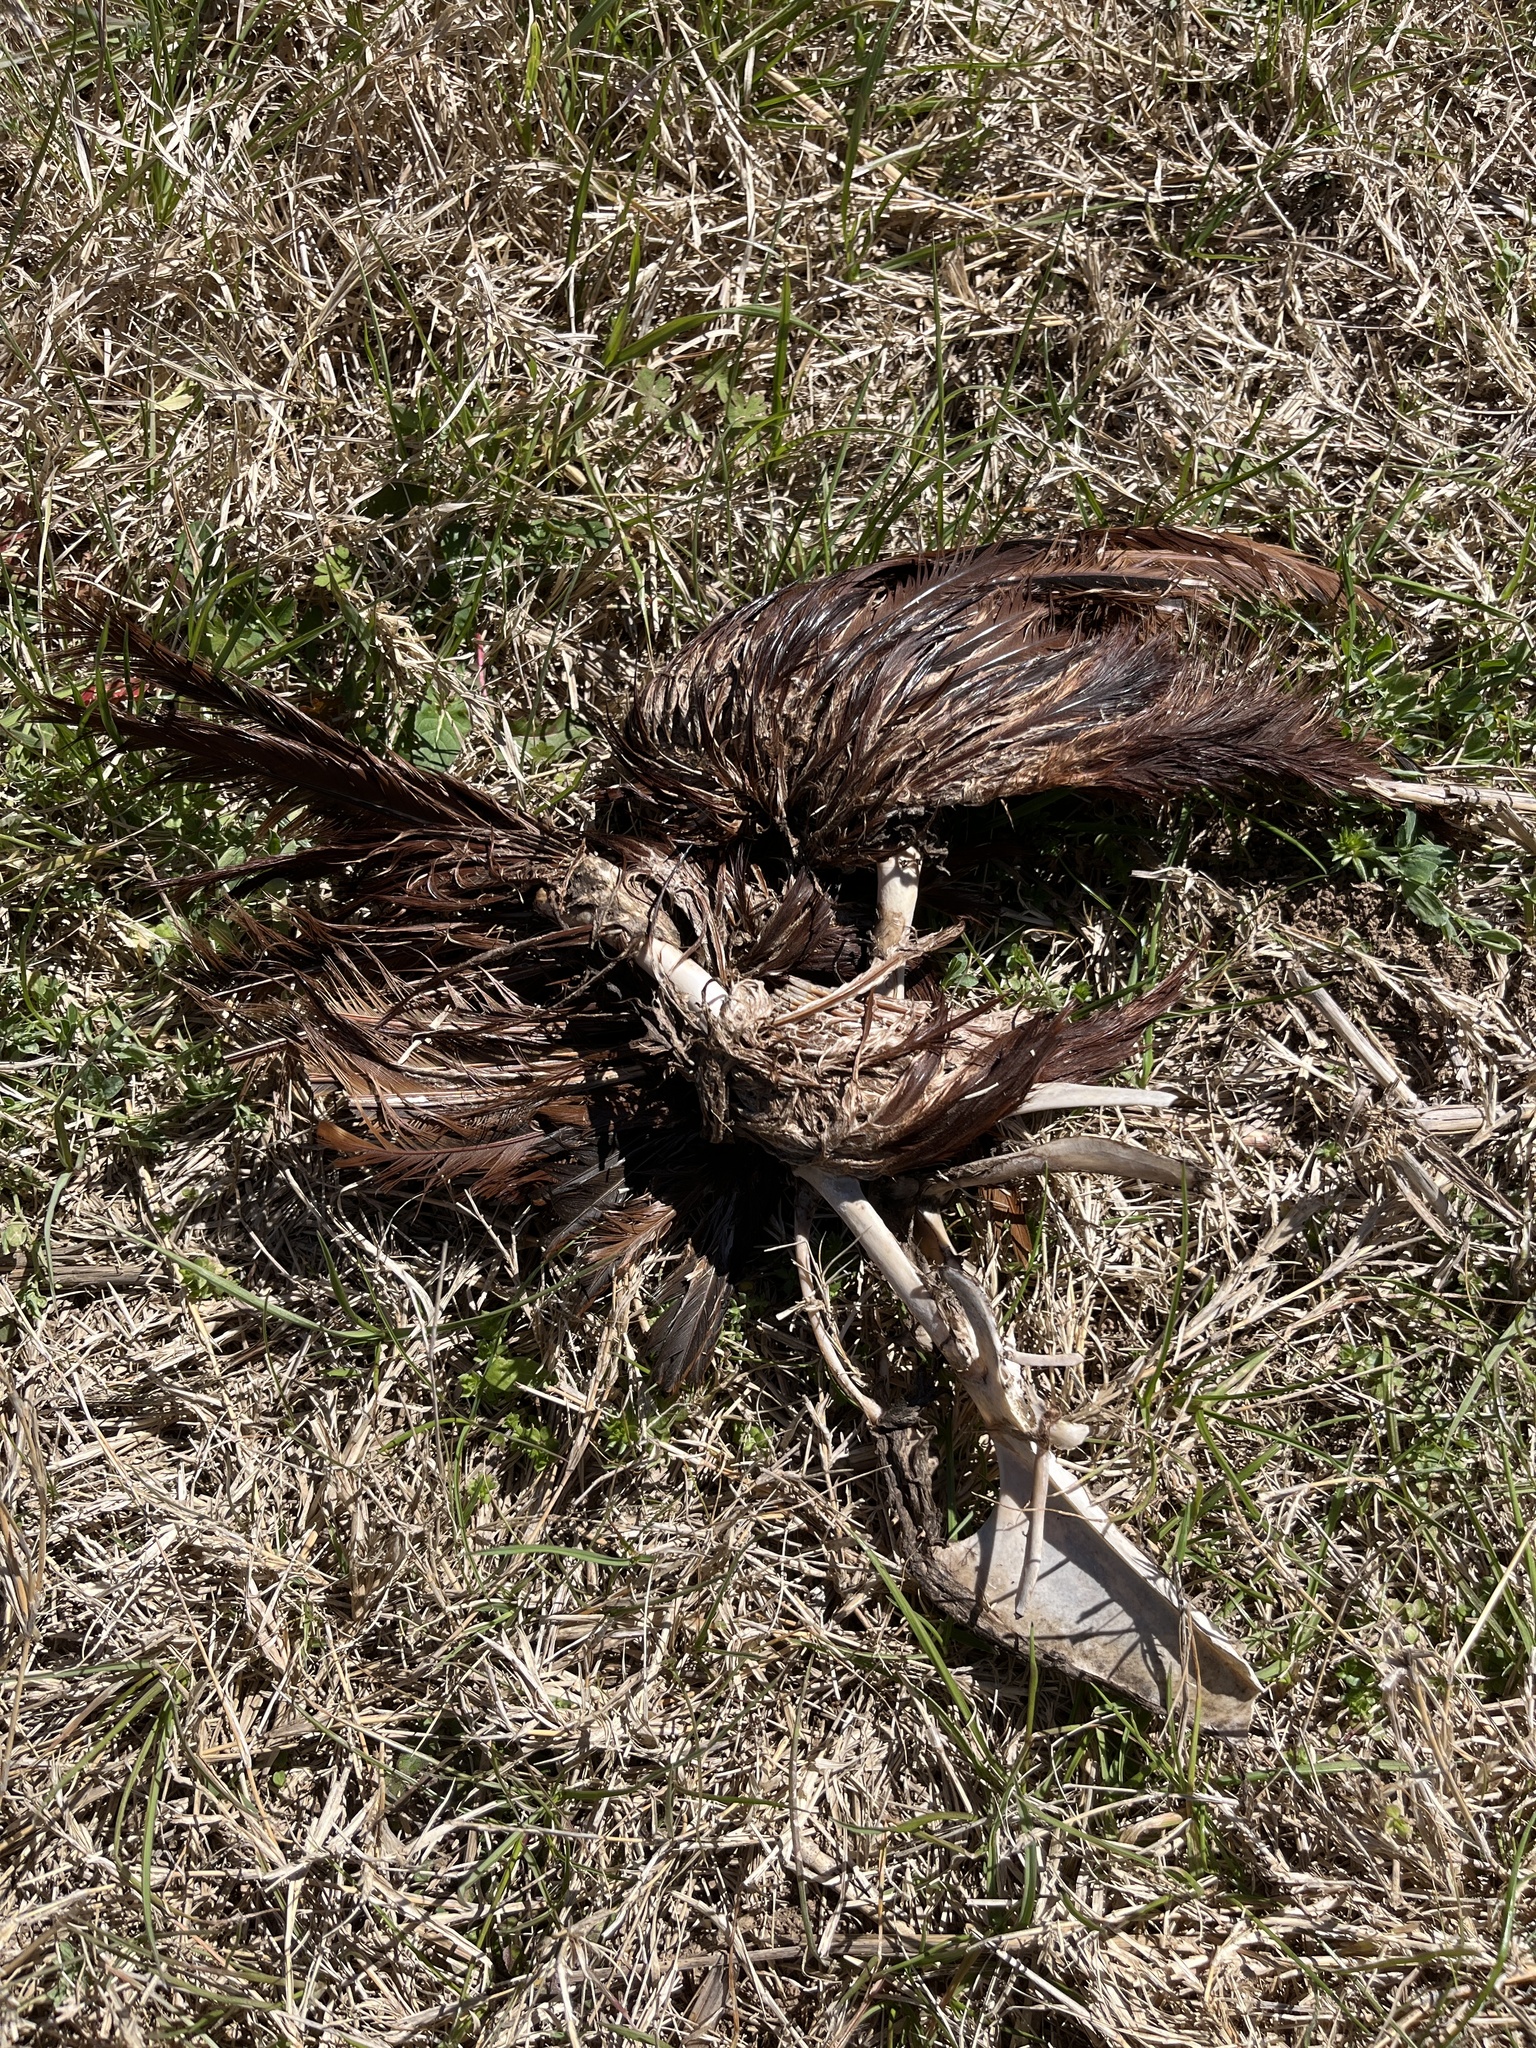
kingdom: Animalia
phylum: Chordata
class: Aves
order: Galliformes
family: Phasianidae
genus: Gallus
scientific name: Gallus gallus
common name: Red junglefowl
